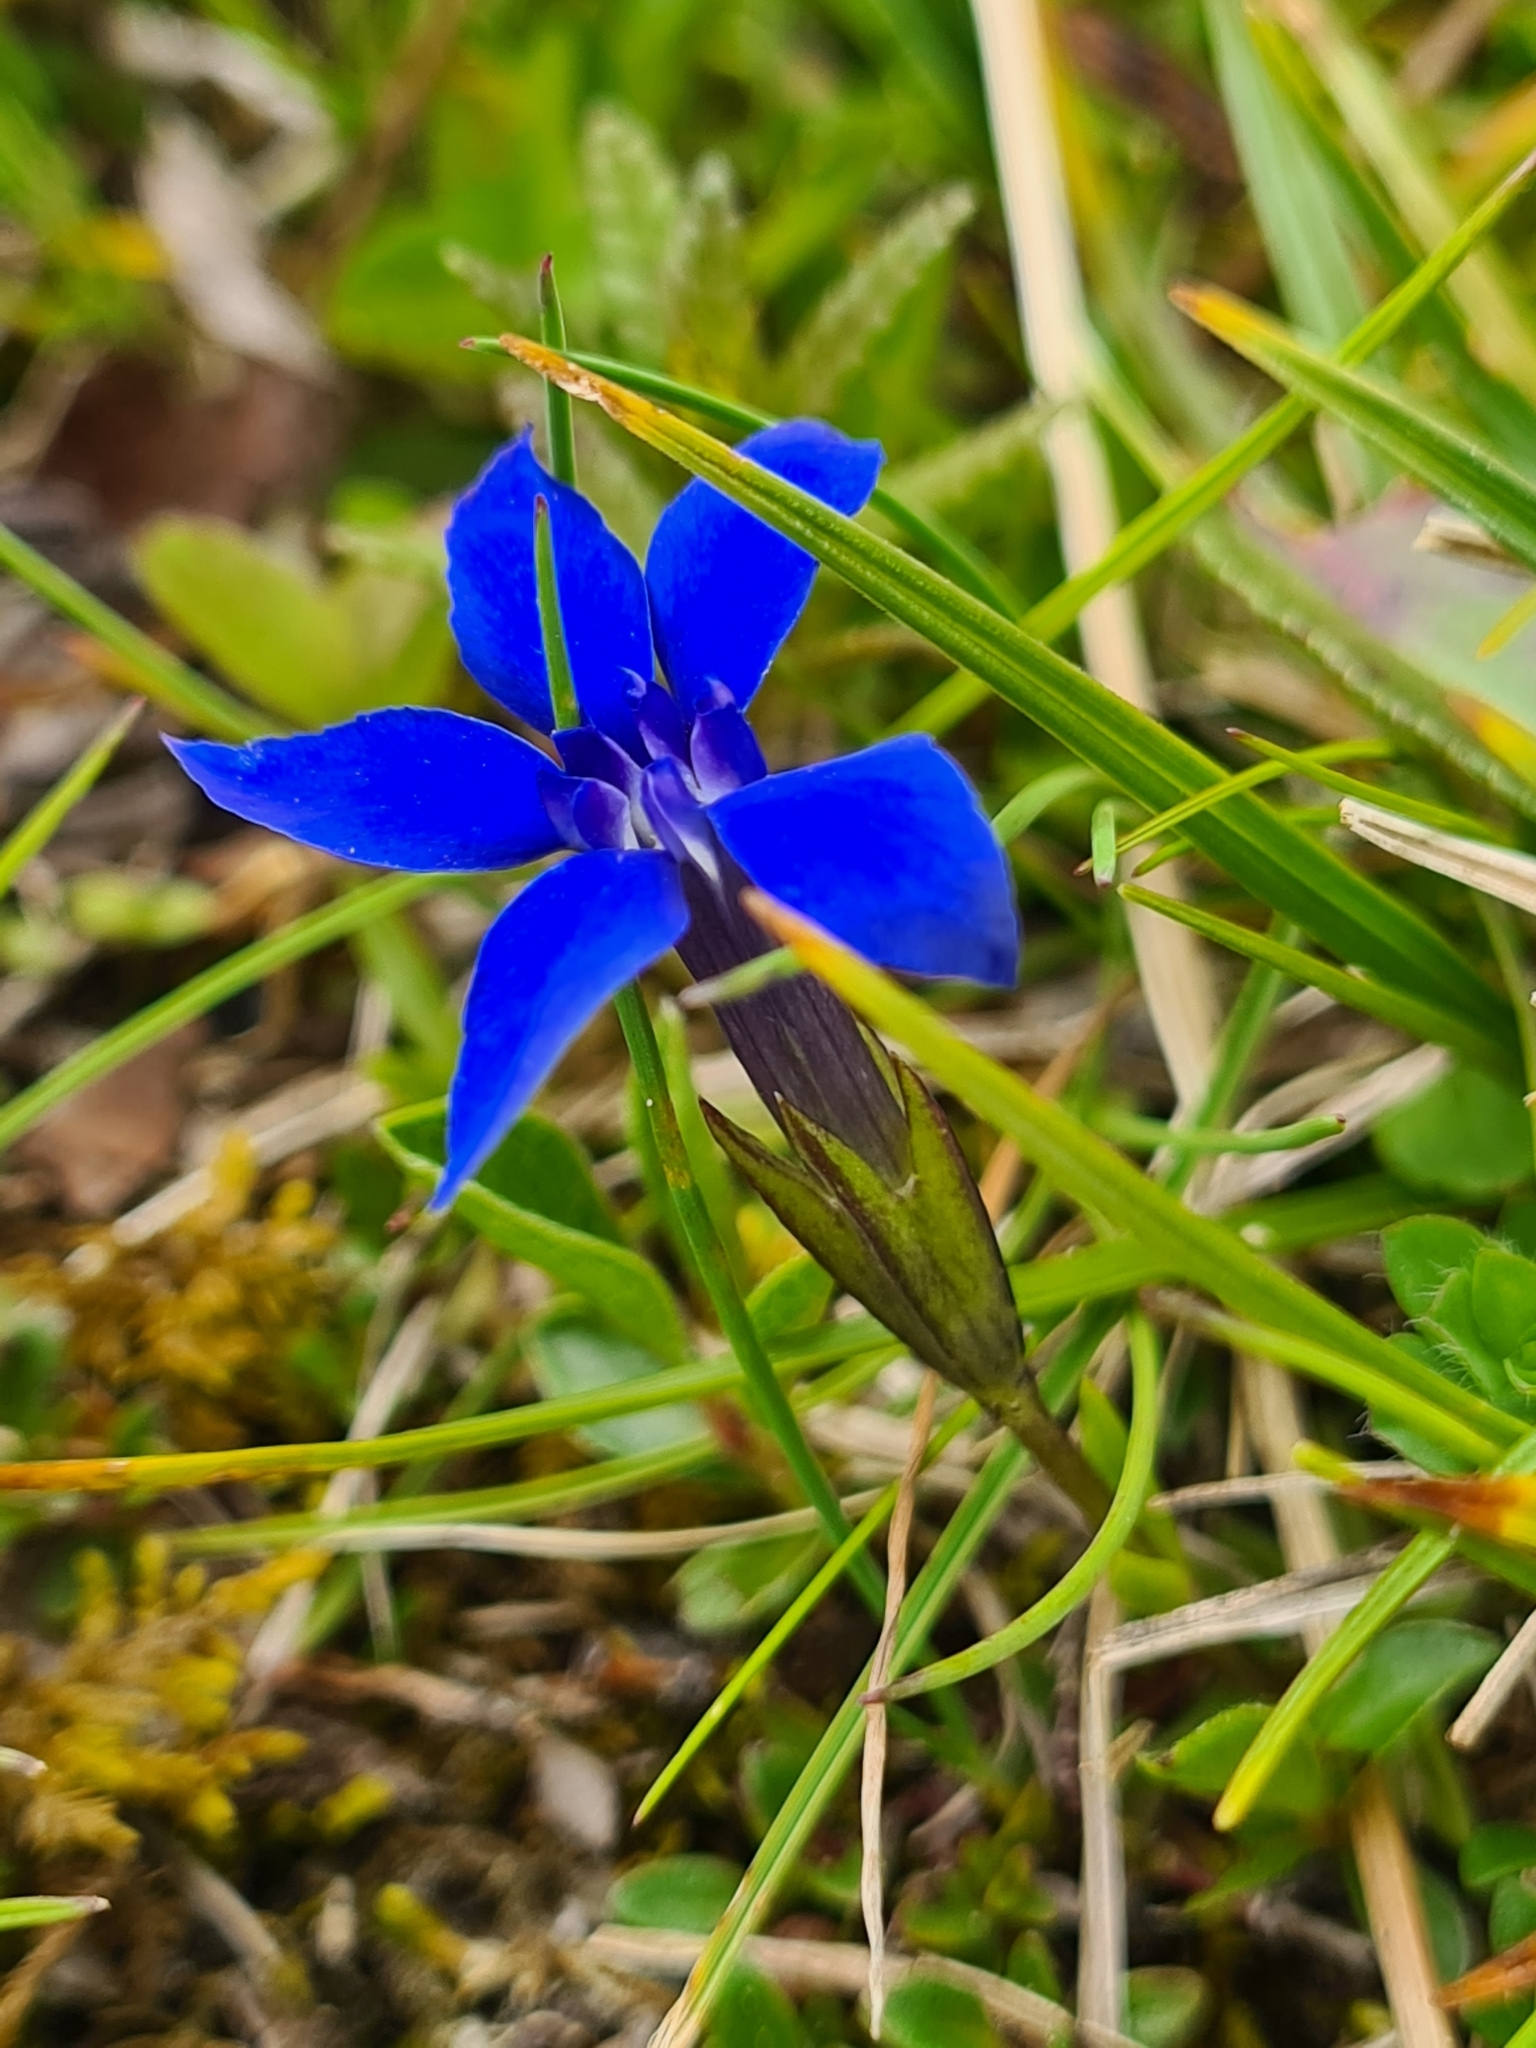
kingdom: Plantae
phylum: Tracheophyta
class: Magnoliopsida
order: Gentianales
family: Gentianaceae
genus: Gentiana
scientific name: Gentiana pumila
